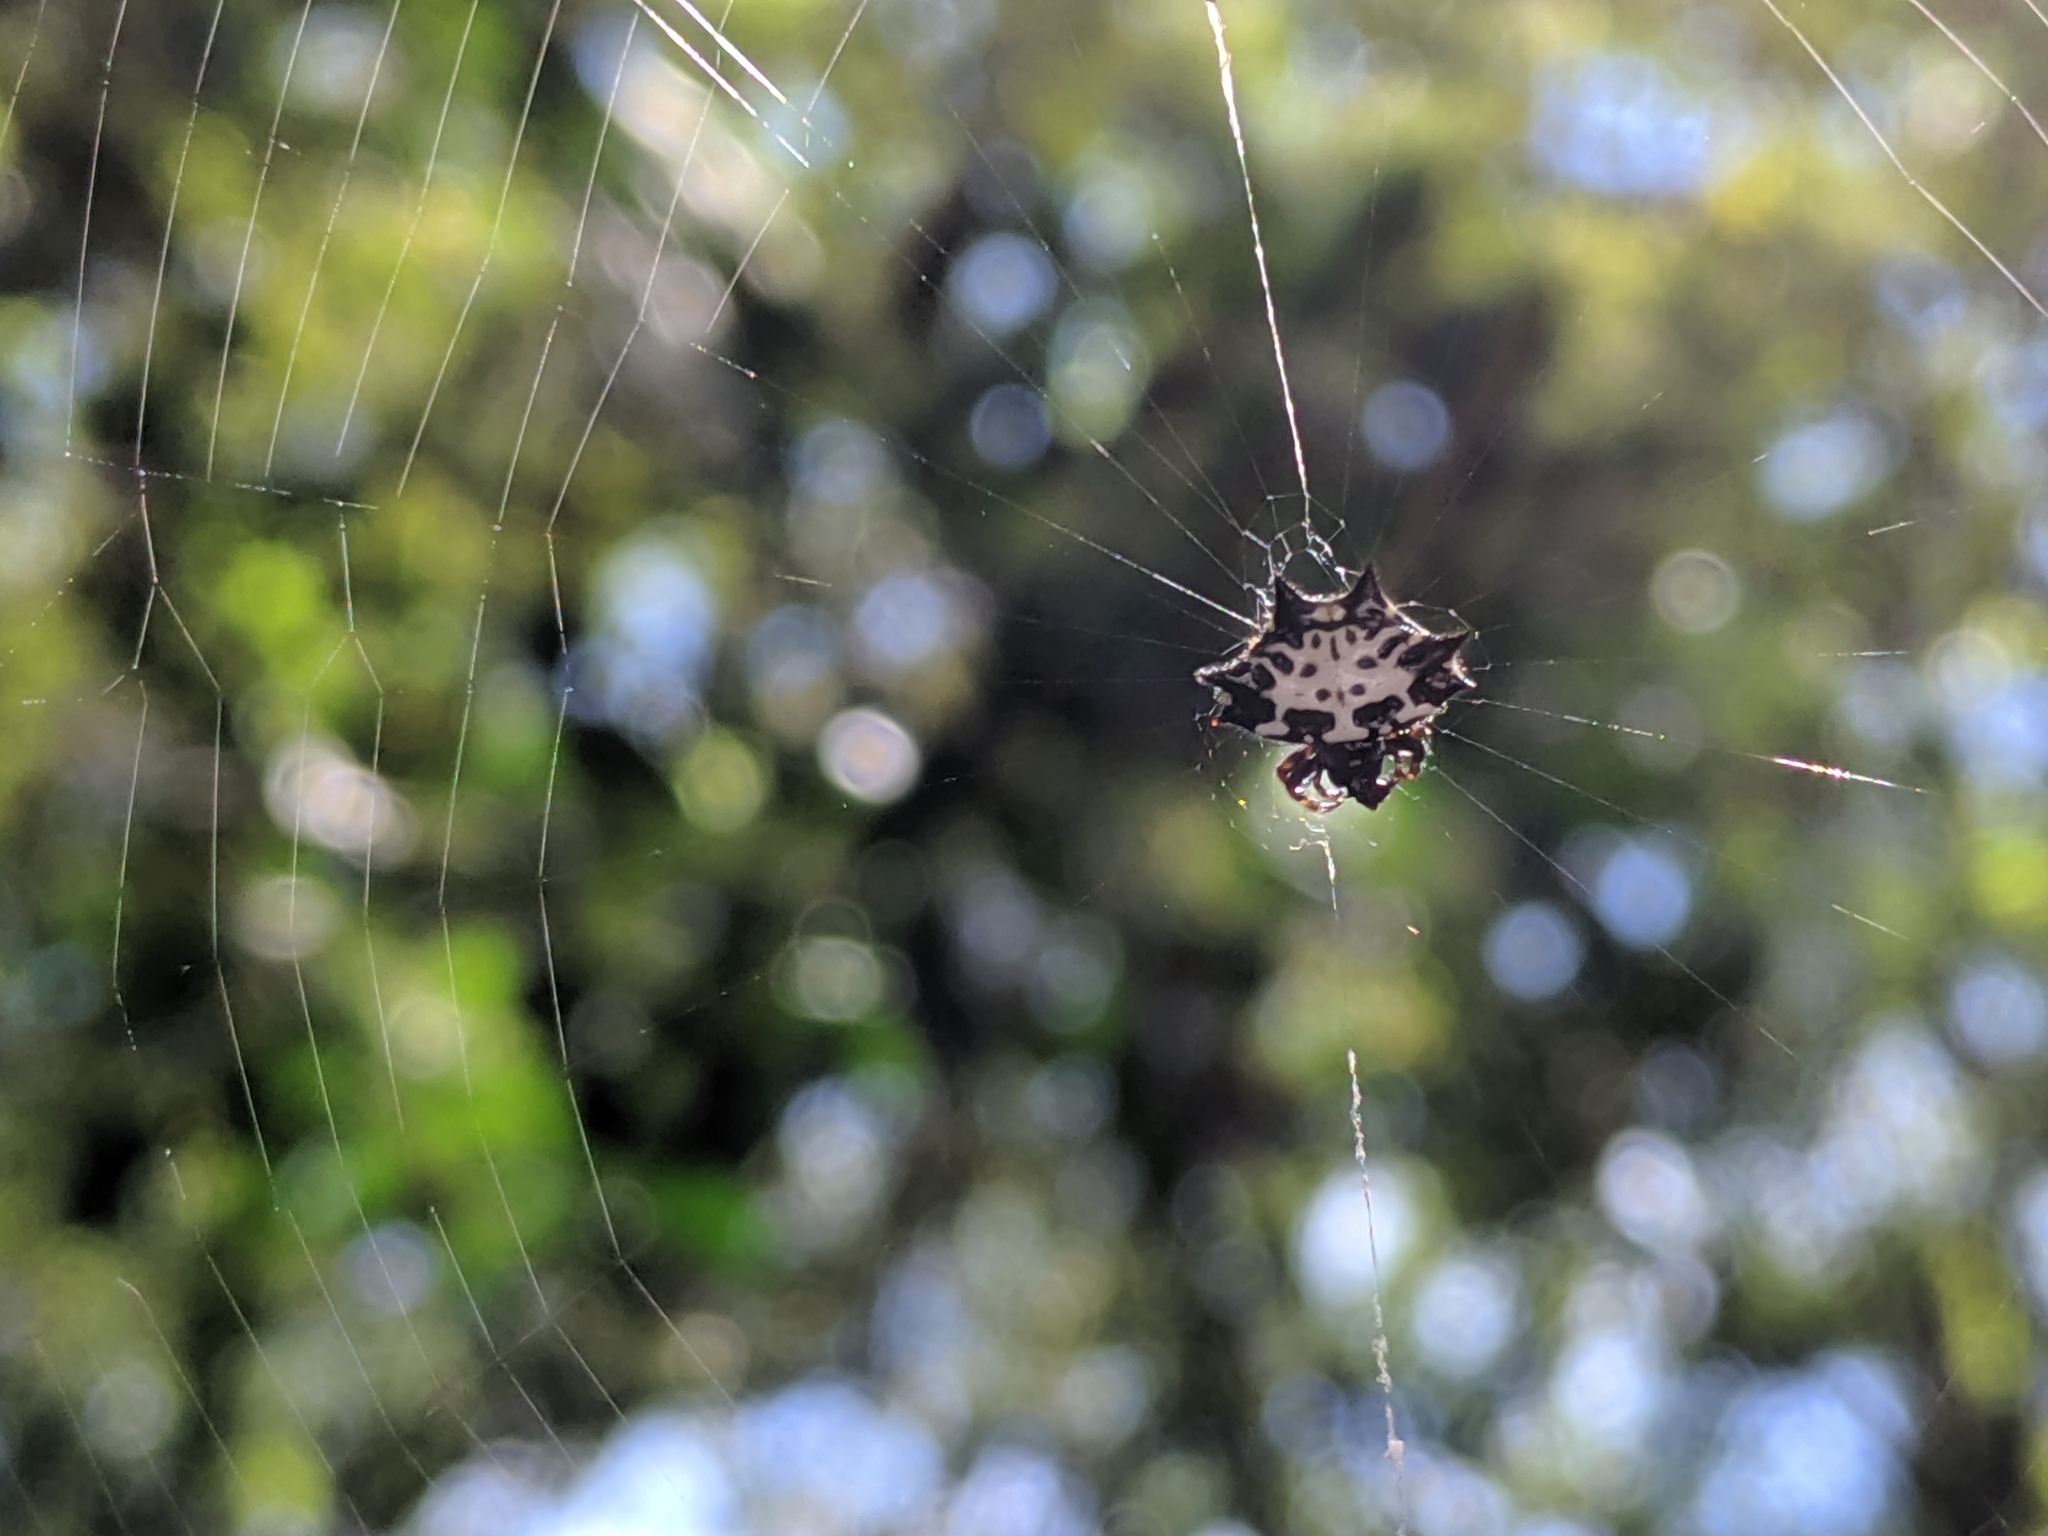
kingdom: Animalia
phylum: Arthropoda
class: Arachnida
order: Araneae
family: Araneidae
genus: Gasteracantha
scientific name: Gasteracantha kuhli
